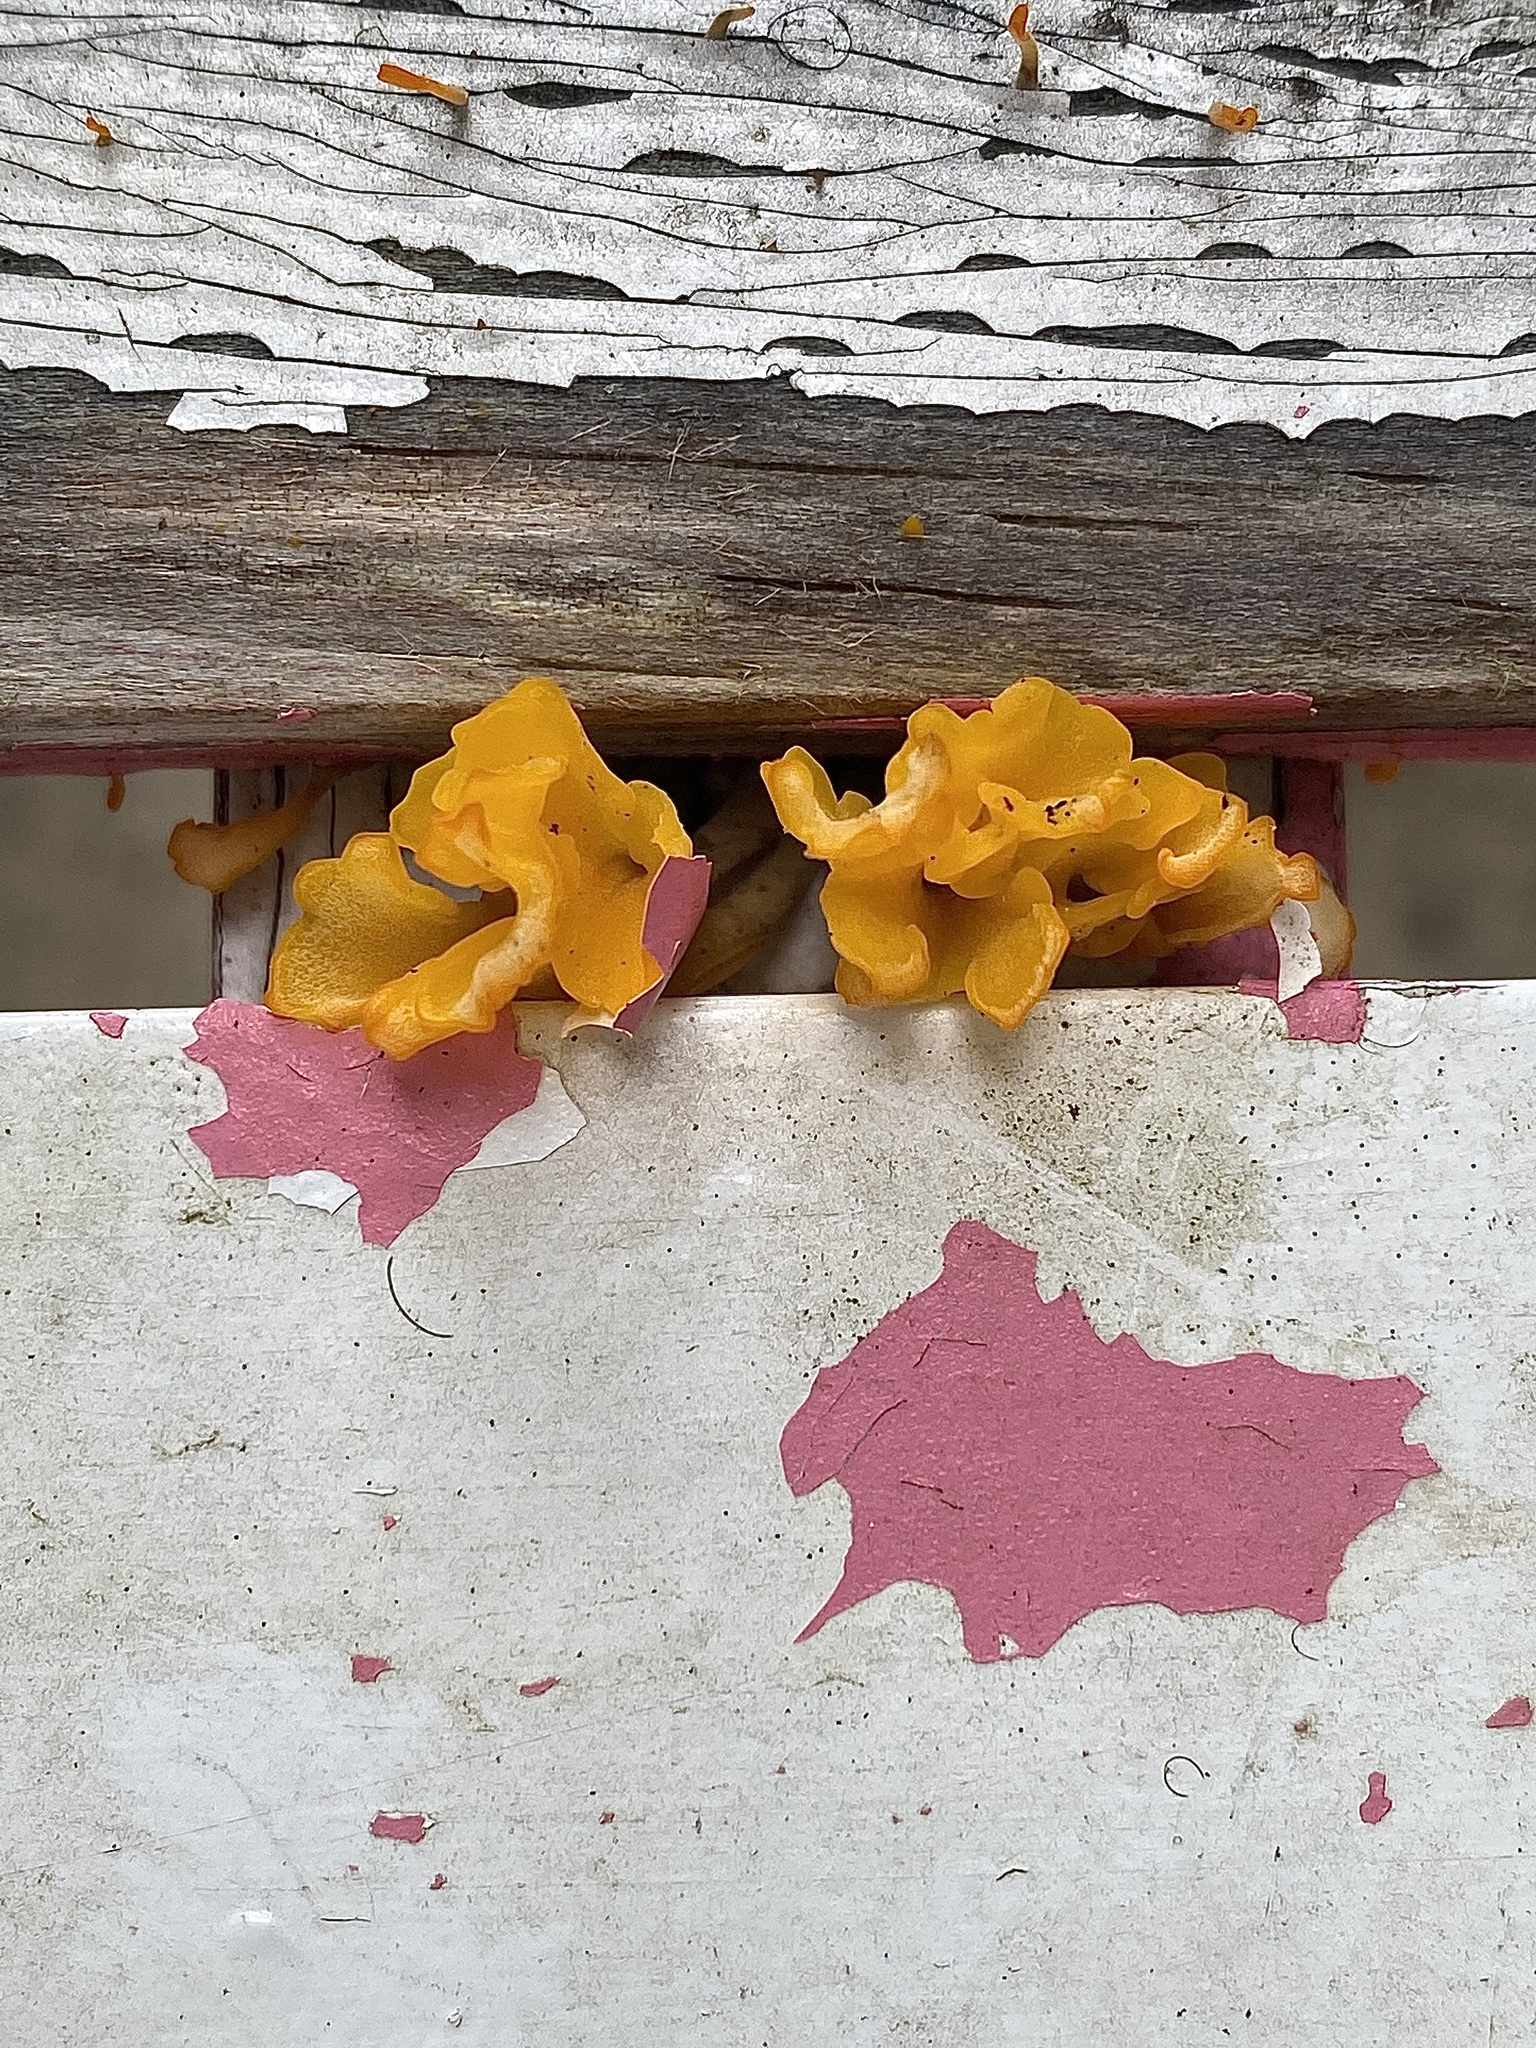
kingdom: Fungi
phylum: Basidiomycota
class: Tremellomycetes
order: Tremellales
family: Tremellaceae
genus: Tremella
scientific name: Tremella mesenterica
